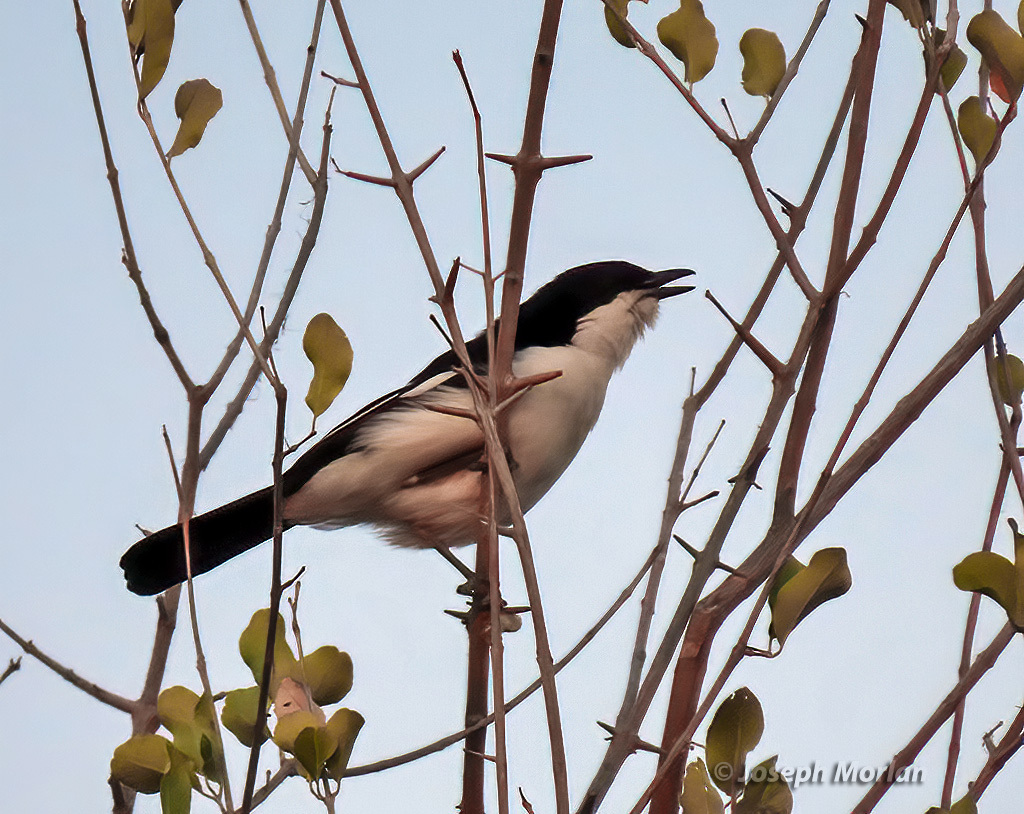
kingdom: Animalia
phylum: Chordata
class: Aves
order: Passeriformes
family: Malaconotidae
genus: Laniarius
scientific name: Laniarius bicolor
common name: Swamp boubou
